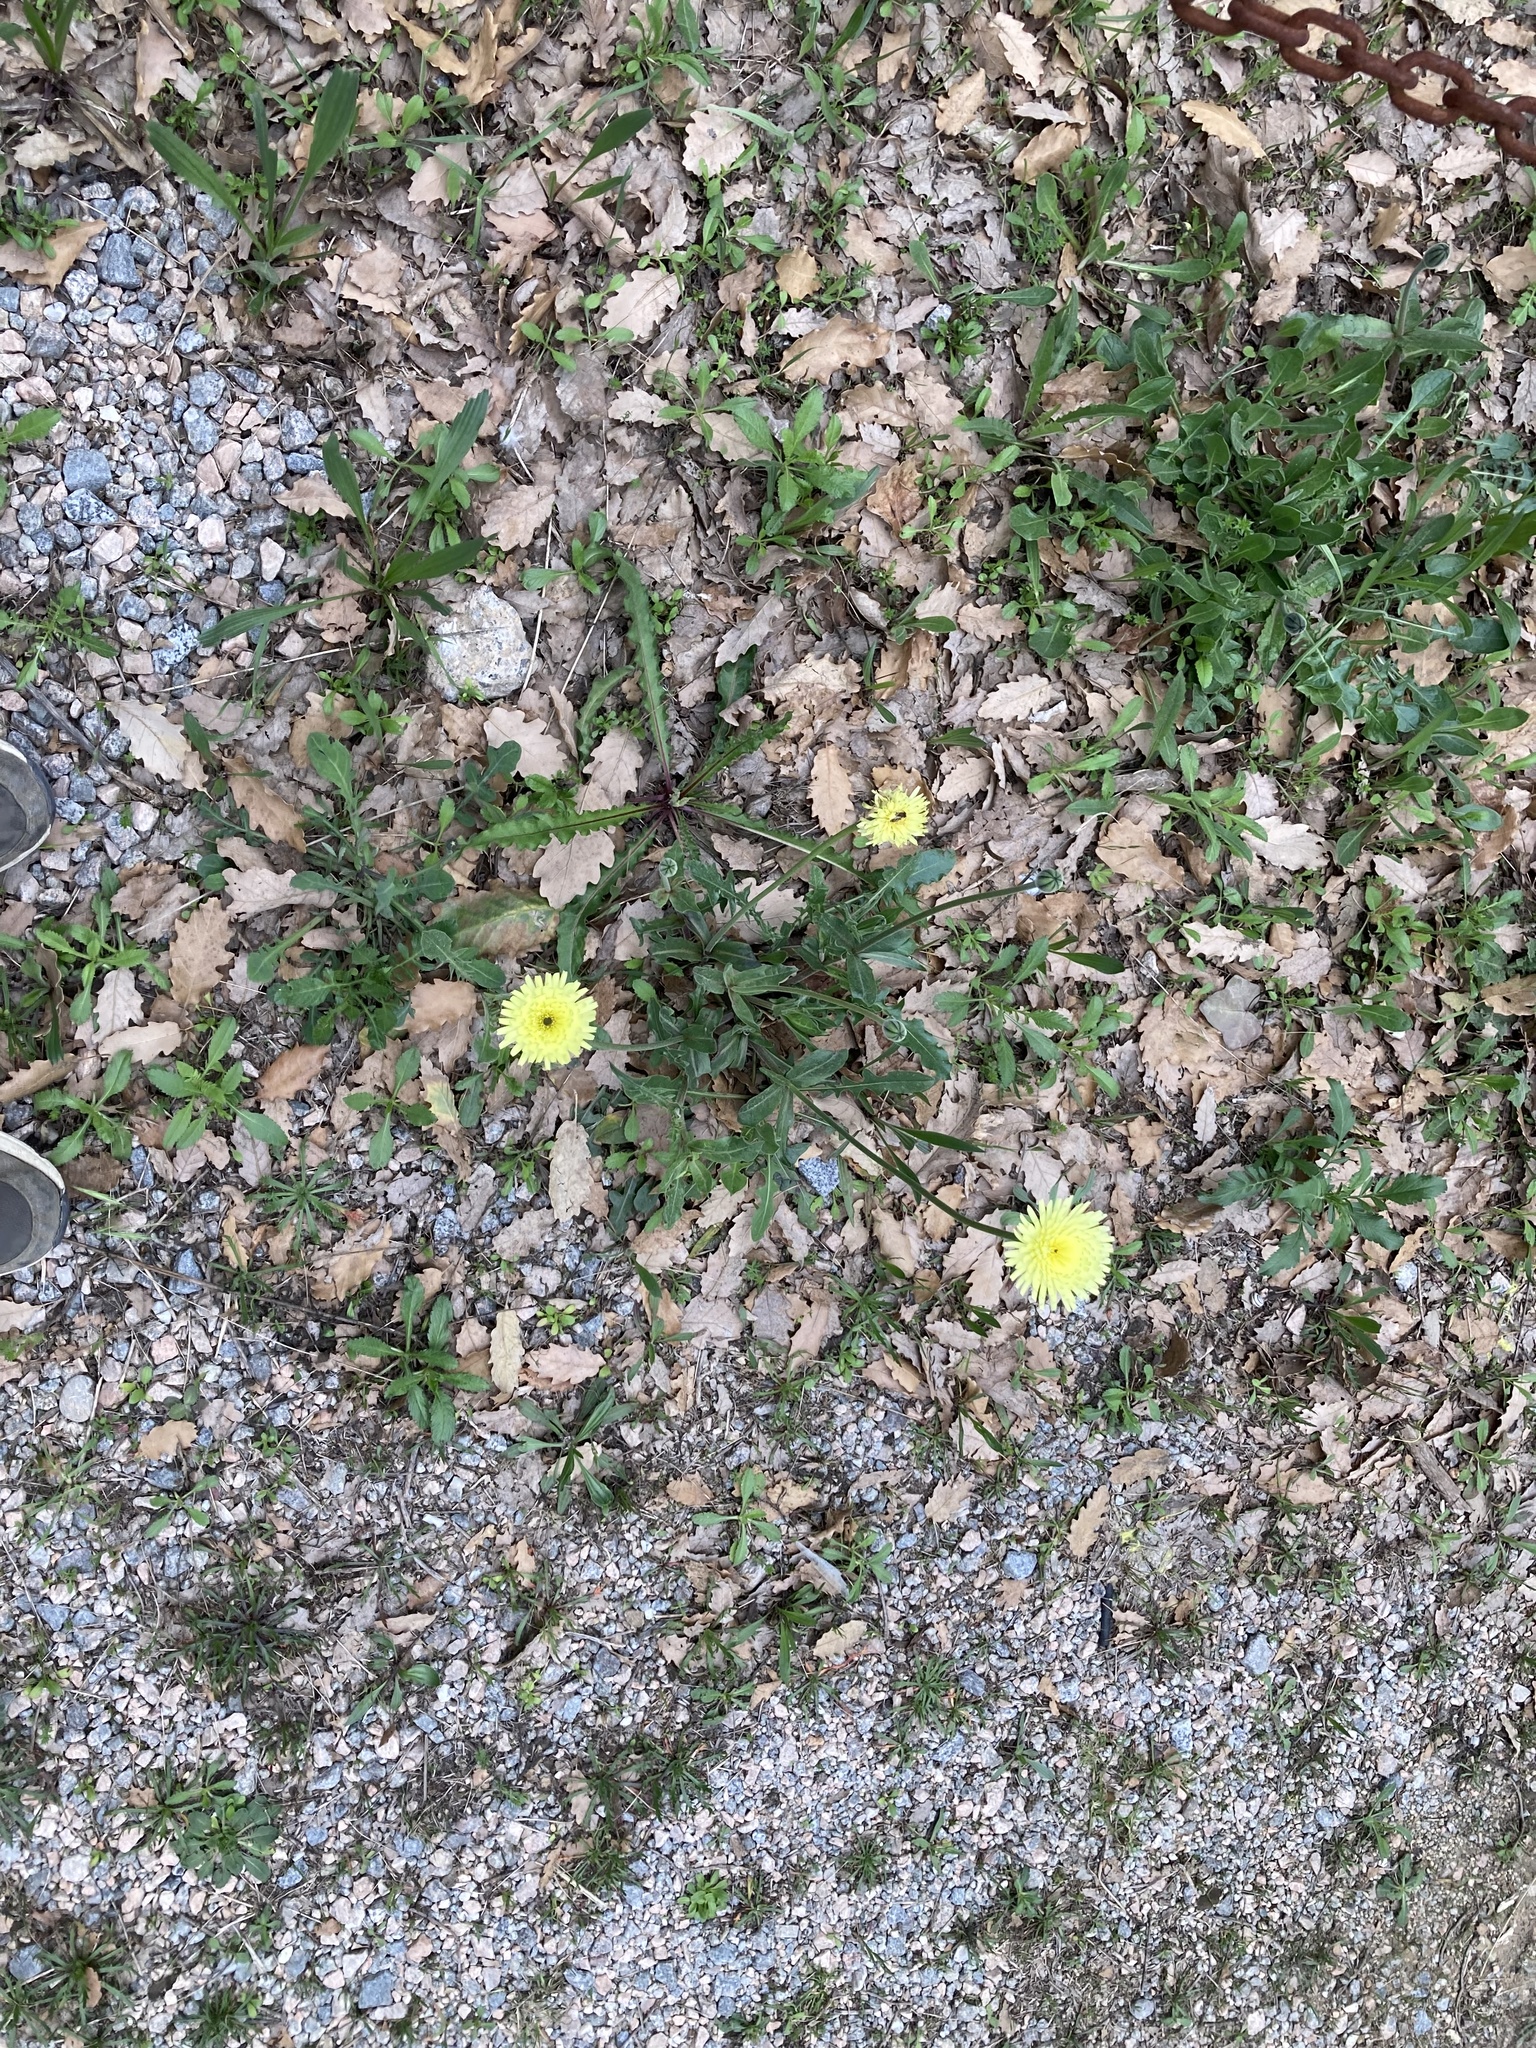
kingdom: Plantae
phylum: Tracheophyta
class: Magnoliopsida
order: Asterales
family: Asteraceae
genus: Urospermum
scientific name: Urospermum dalechampii
